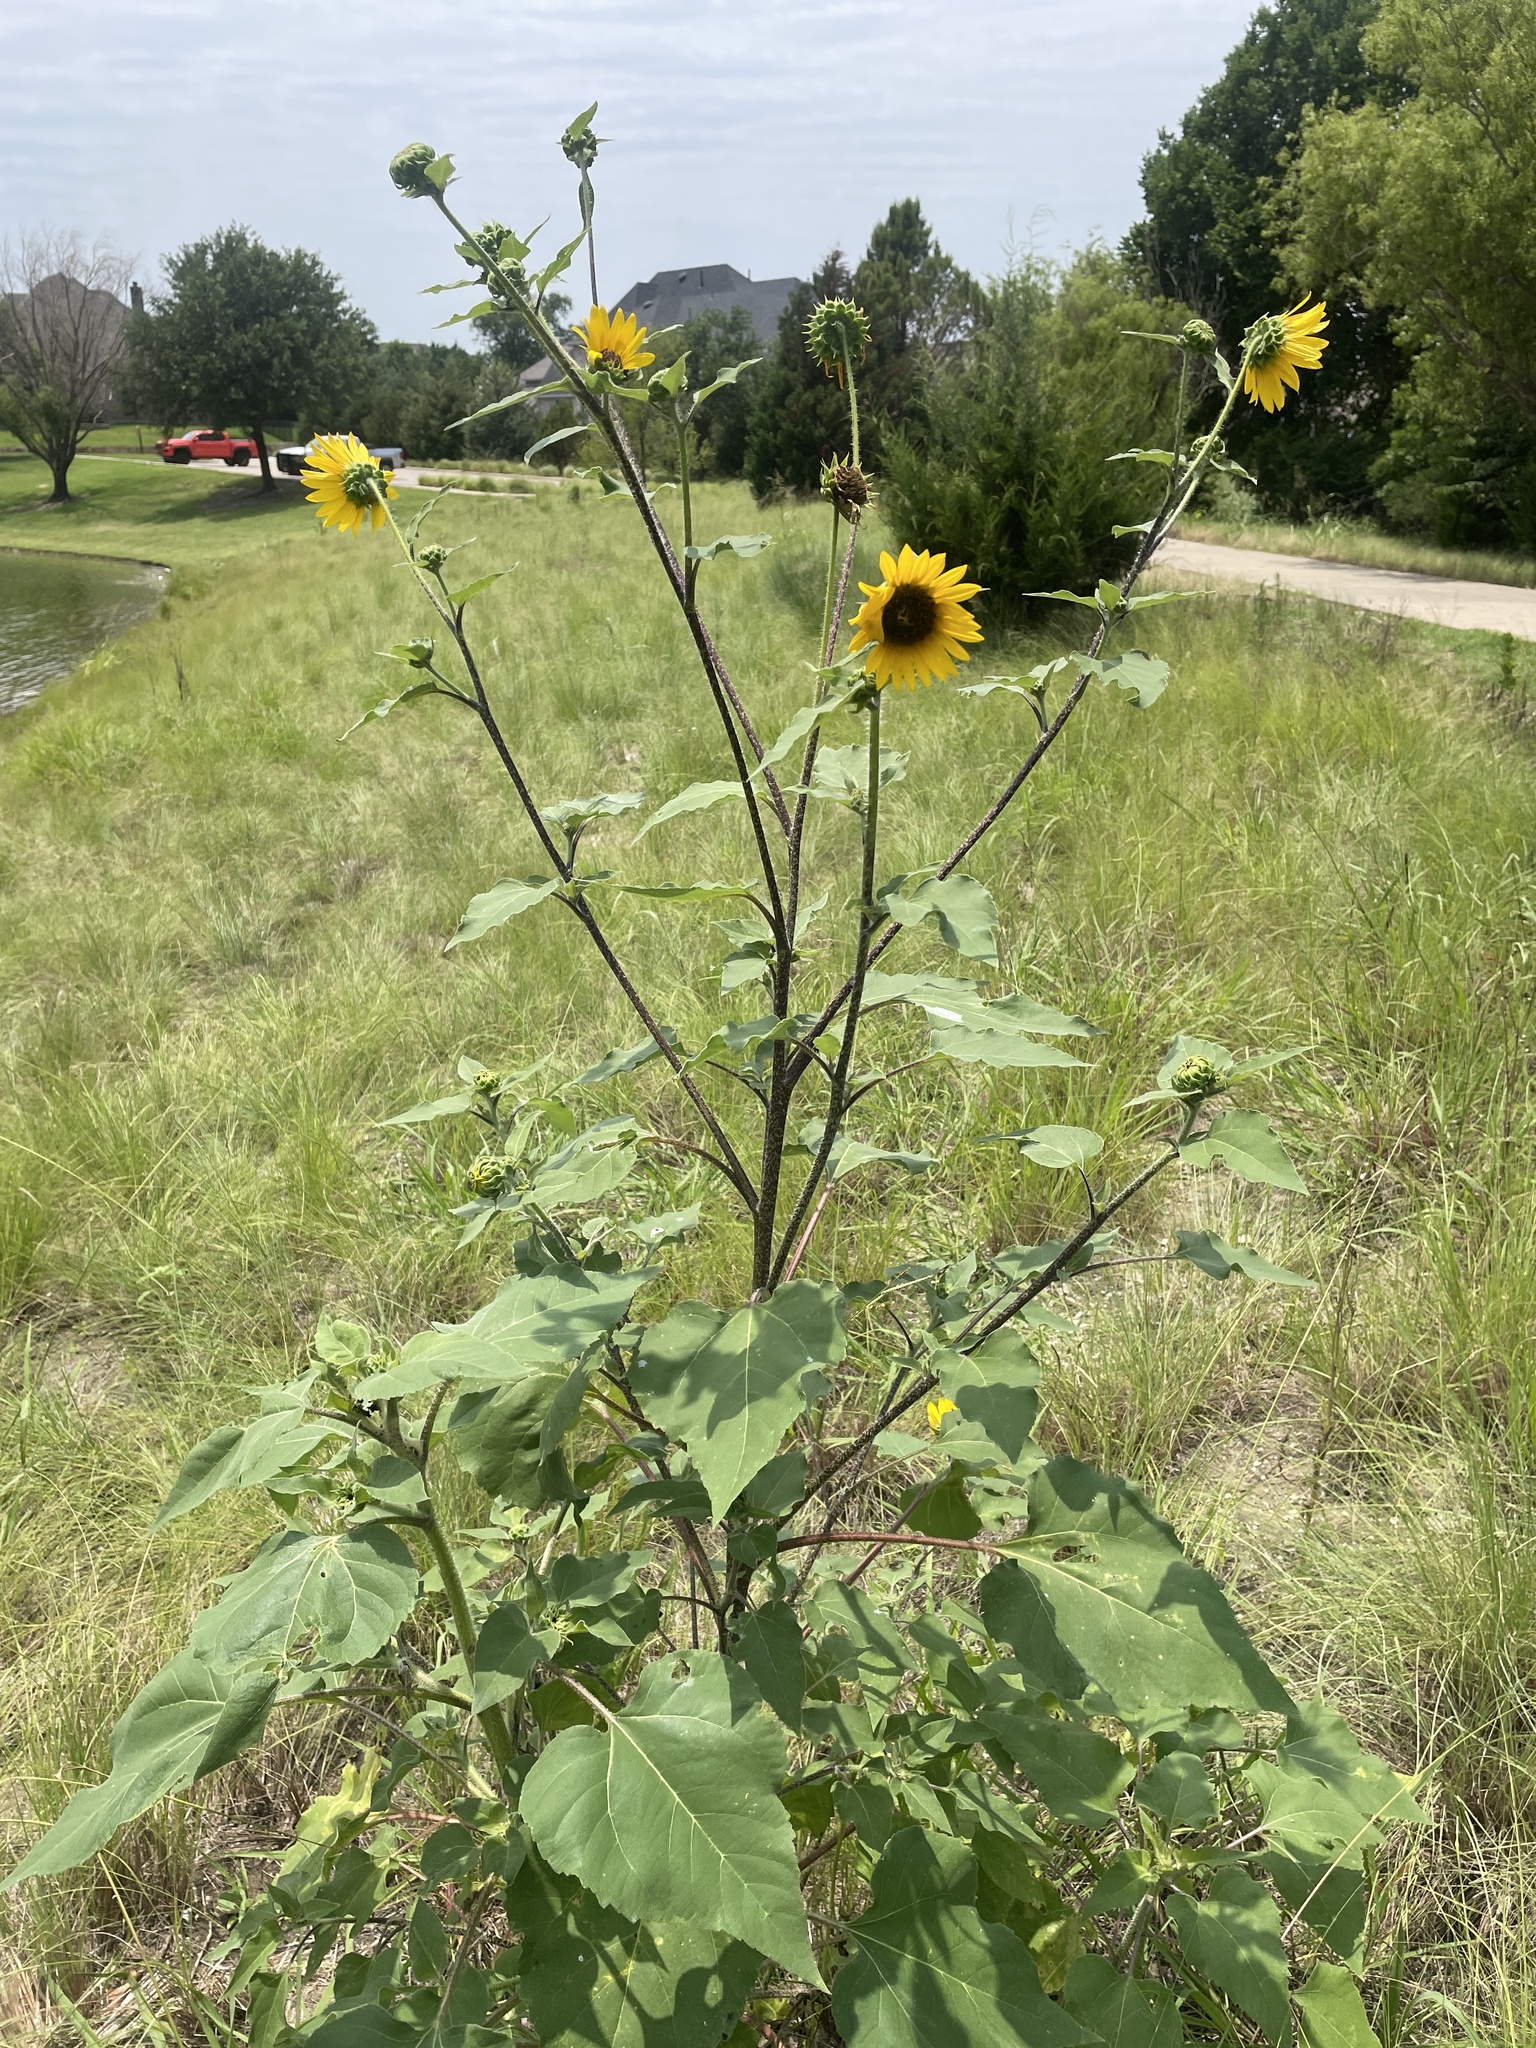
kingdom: Plantae
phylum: Tracheophyta
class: Magnoliopsida
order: Asterales
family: Asteraceae
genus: Helianthus
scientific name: Helianthus annuus
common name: Sunflower
